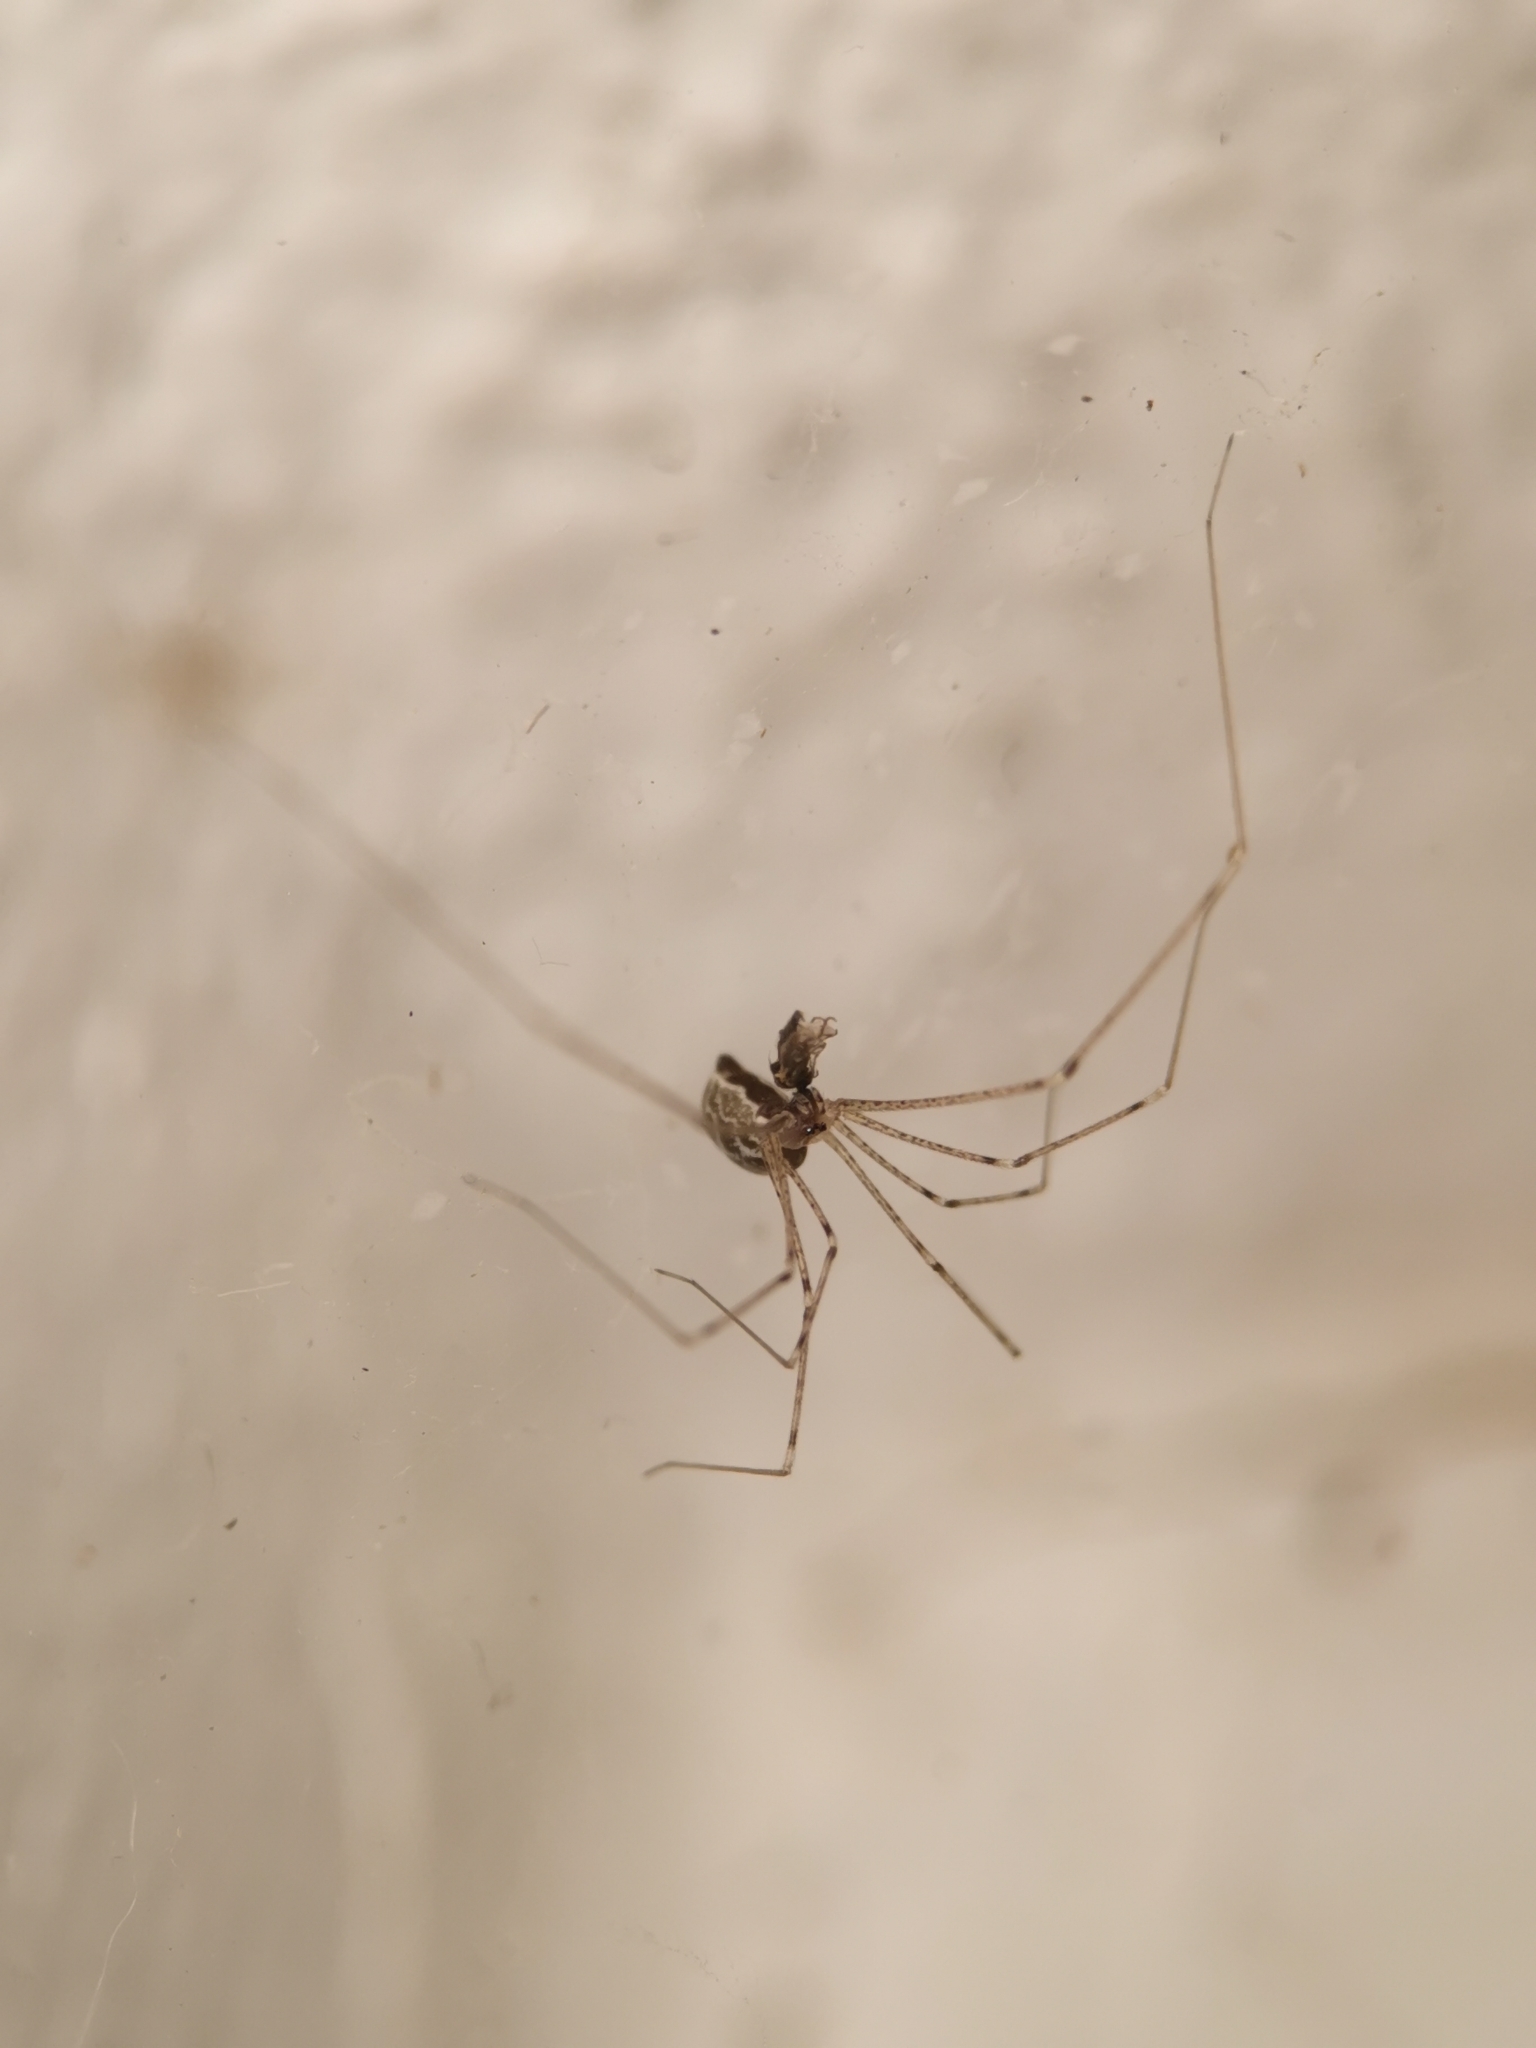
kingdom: Animalia
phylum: Arthropoda
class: Arachnida
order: Araneae
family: Pholcidae
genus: Holocnemus
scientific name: Holocnemus pluchei
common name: Marbled cellar spider
